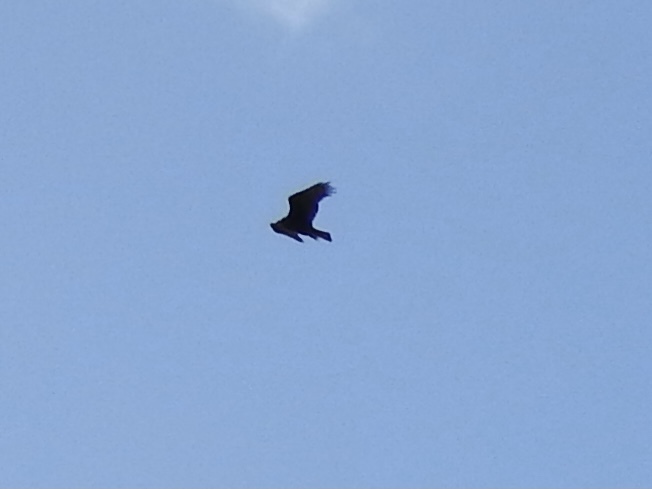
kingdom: Animalia
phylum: Chordata
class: Aves
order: Accipitriformes
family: Cathartidae
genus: Cathartes
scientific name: Cathartes aura
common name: Turkey vulture
